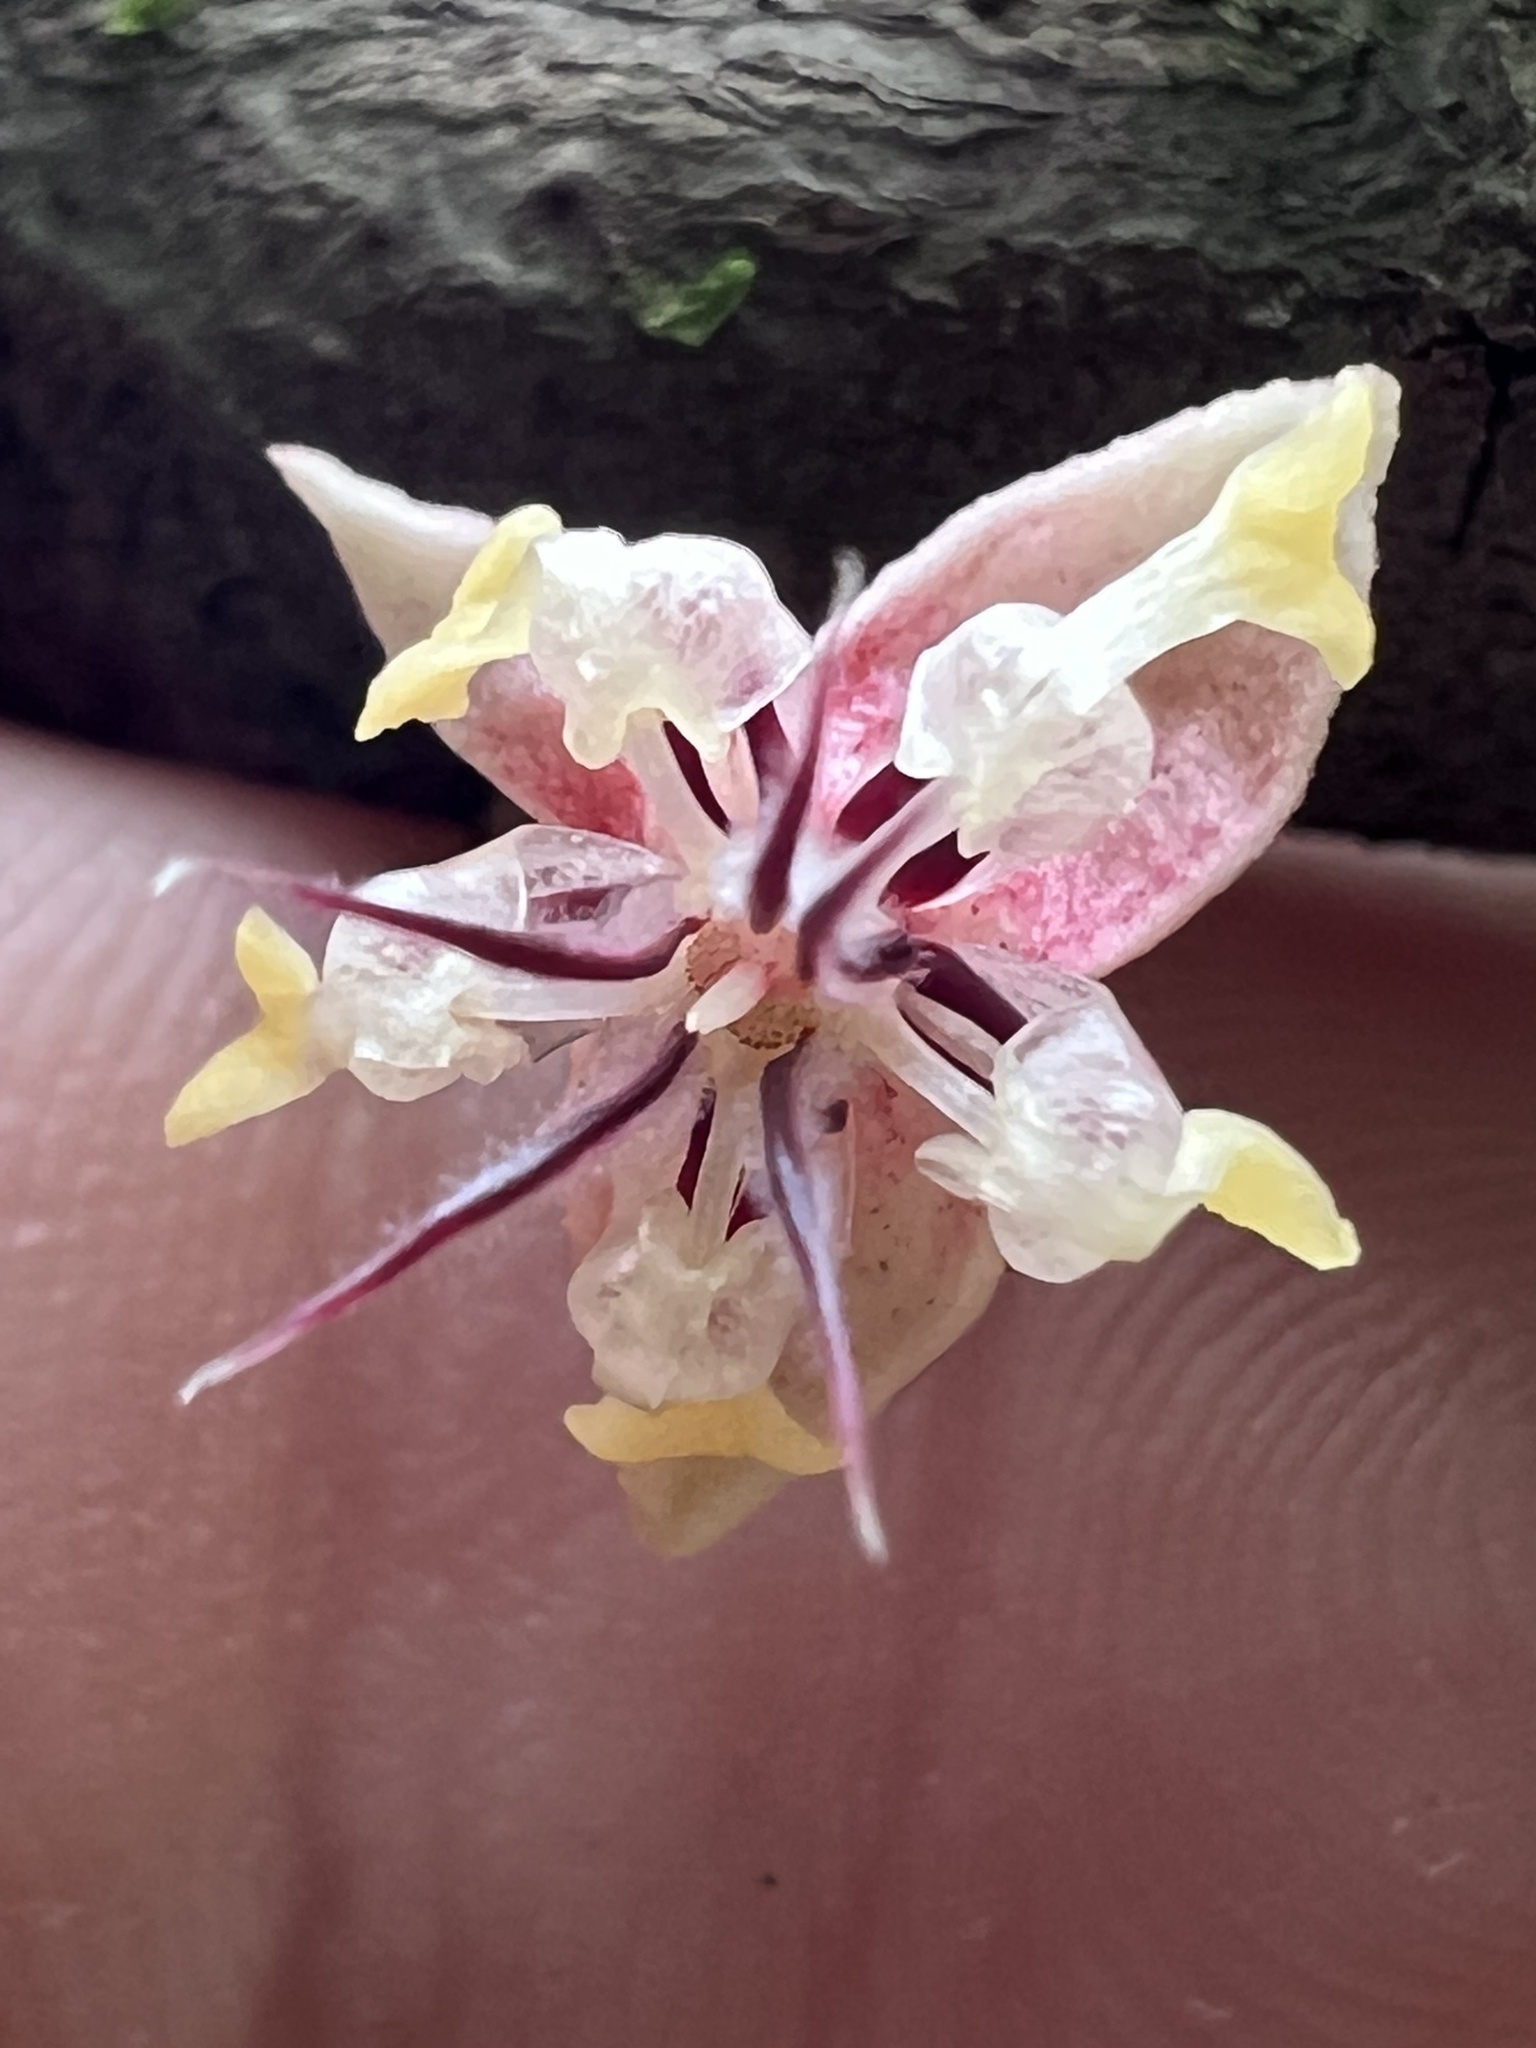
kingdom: Plantae
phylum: Tracheophyta
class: Magnoliopsida
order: Malvales
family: Malvaceae
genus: Theobroma
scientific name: Theobroma cacao
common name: Cocoa
